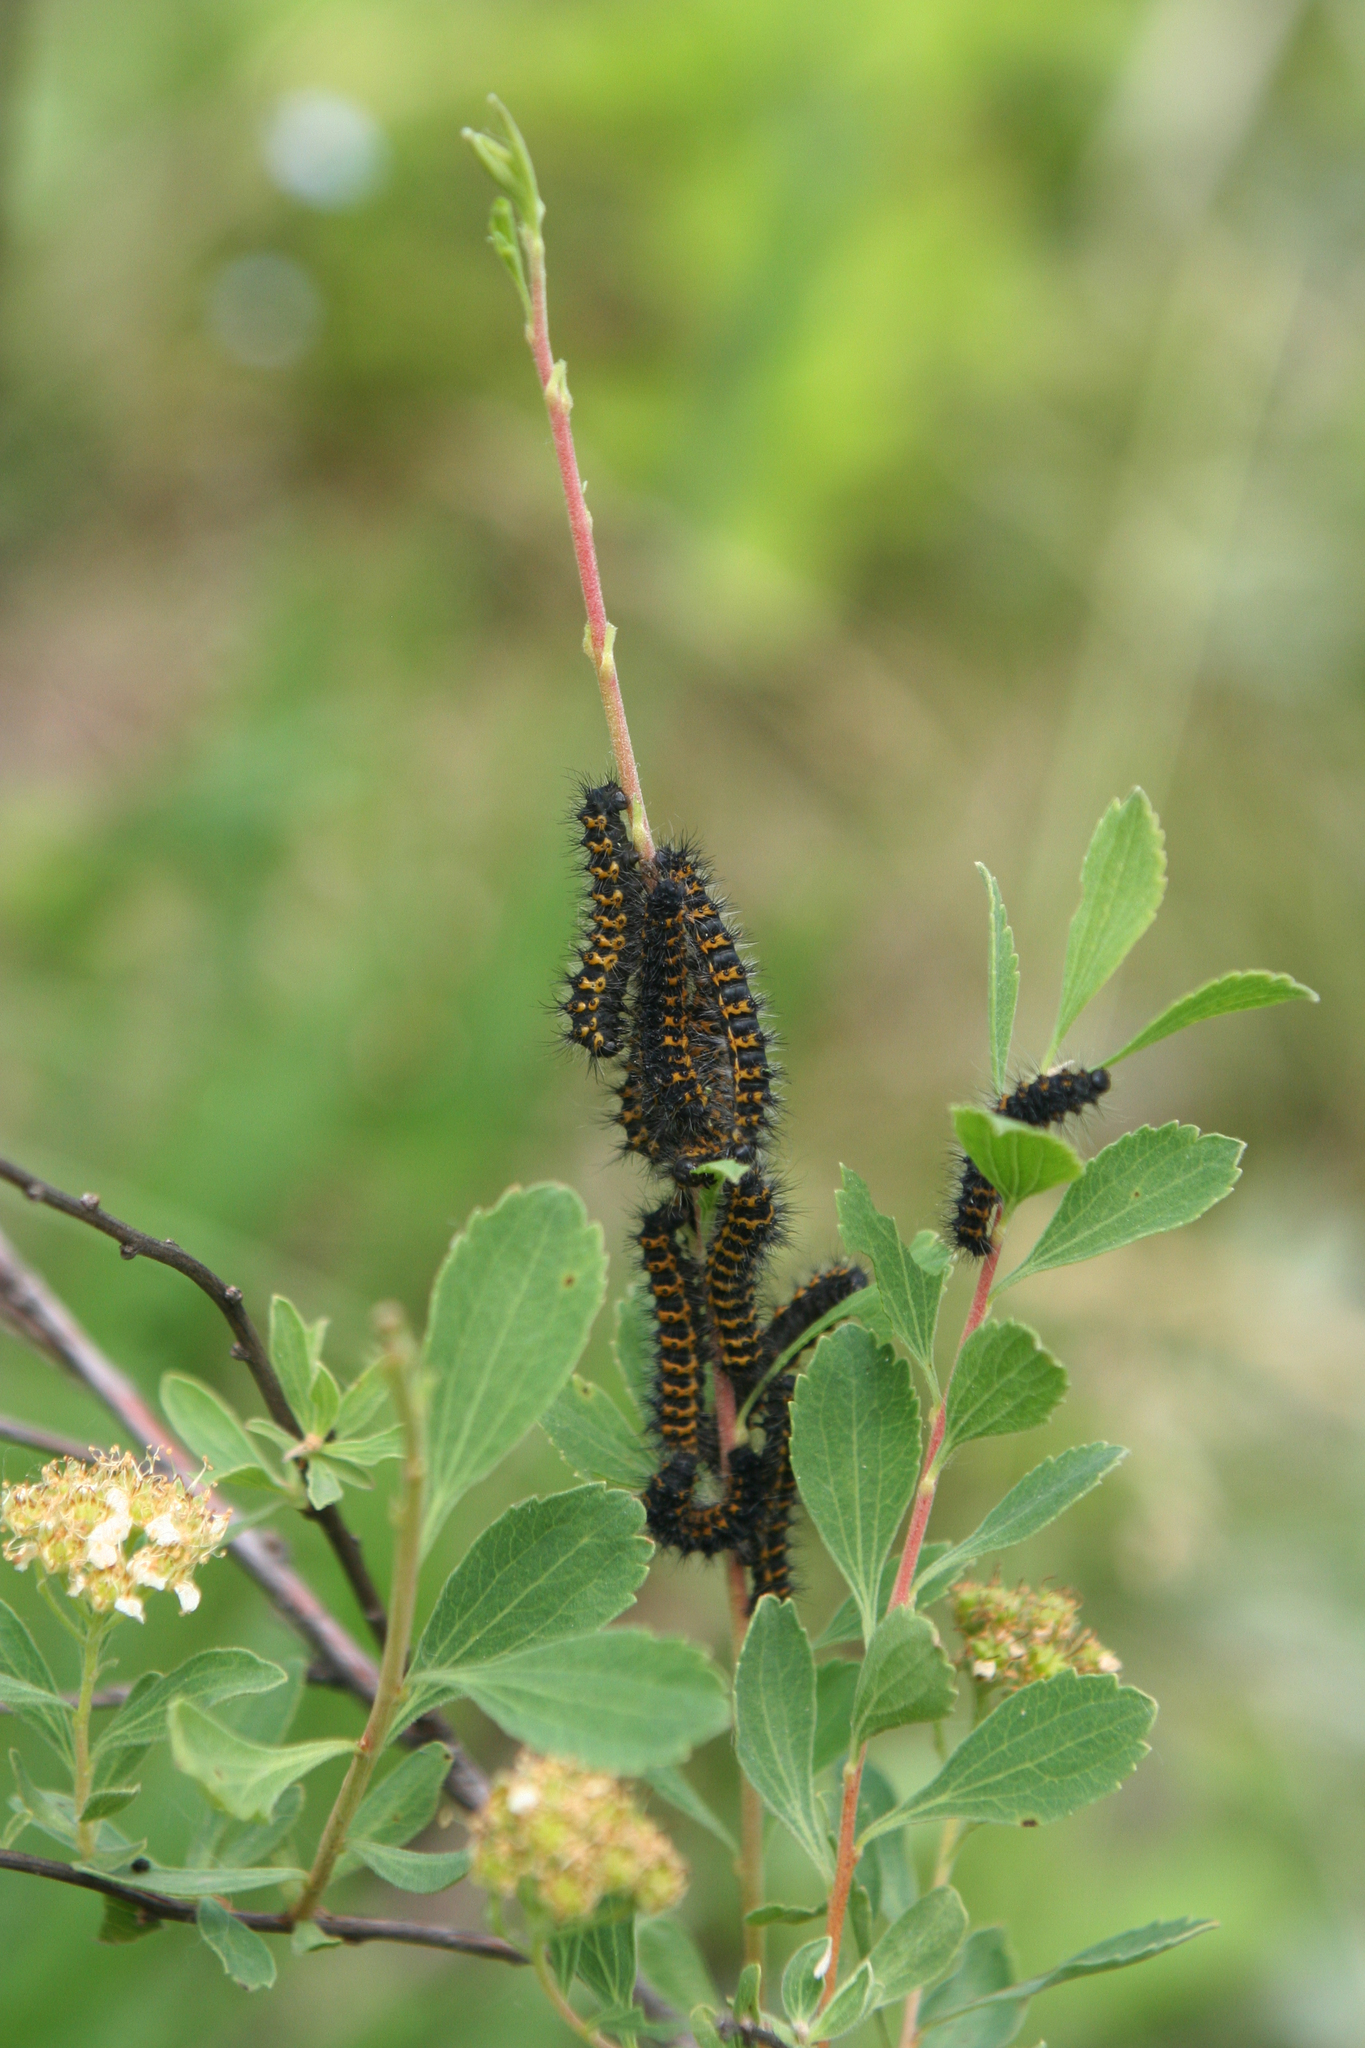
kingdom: Plantae
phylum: Tracheophyta
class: Magnoliopsida
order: Rosales
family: Rosaceae
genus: Spiraea
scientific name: Spiraea crenata
